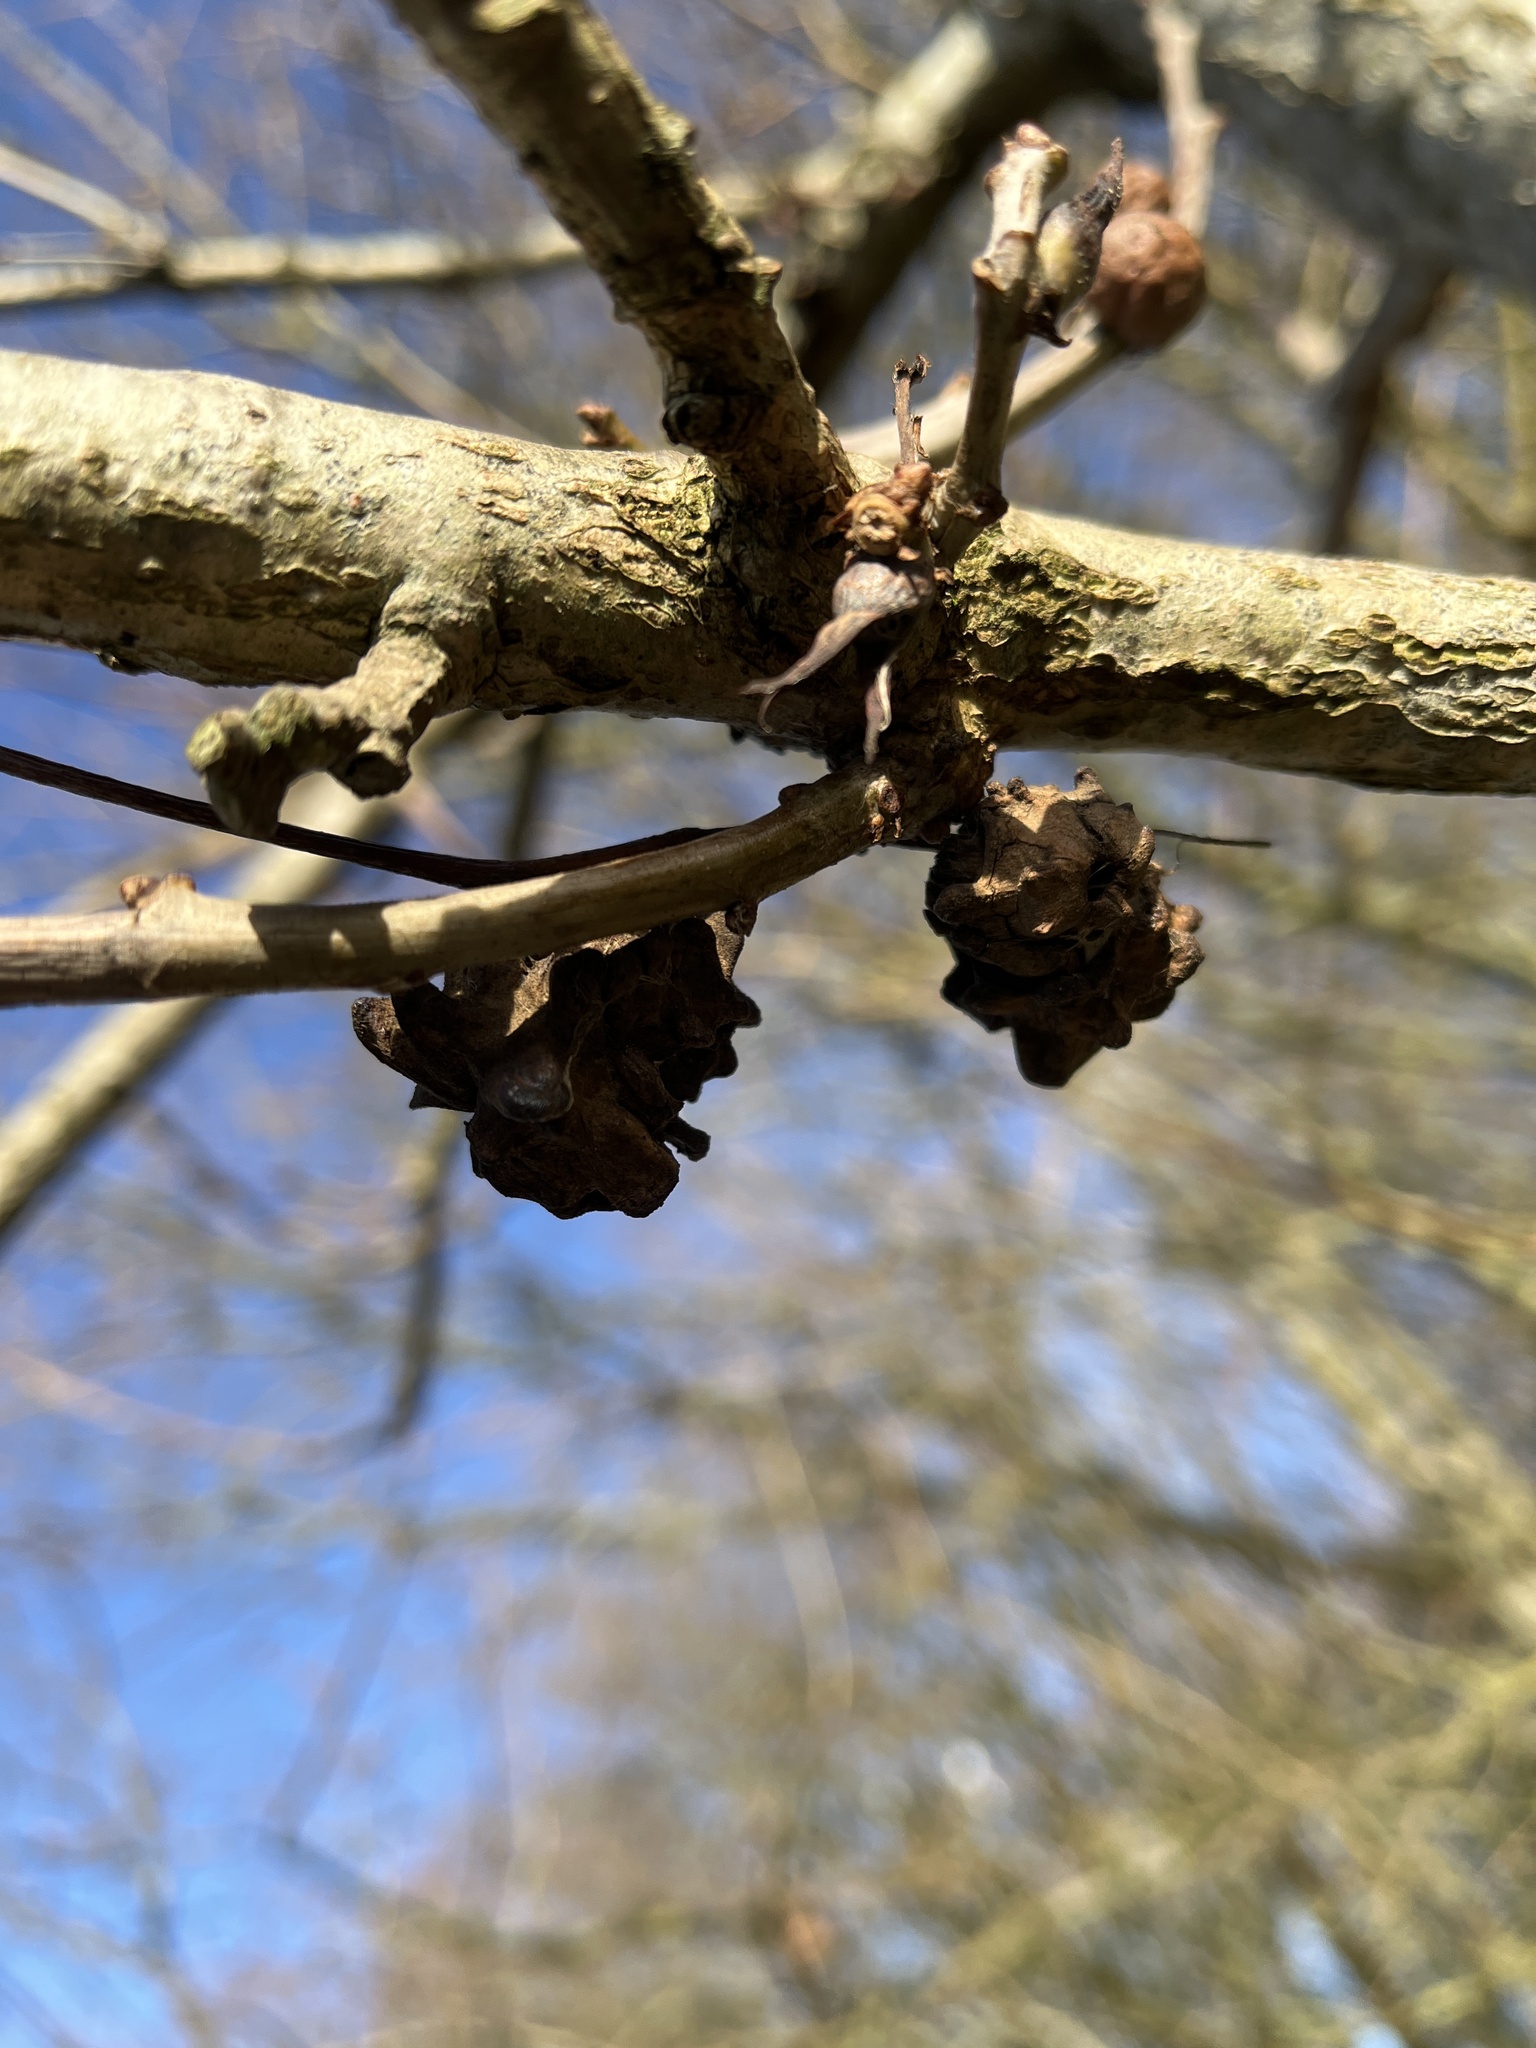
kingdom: Animalia
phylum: Arthropoda
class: Insecta
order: Hymenoptera
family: Cynipidae
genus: Andricus
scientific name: Andricus quercuscalicis
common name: Knopper gall
